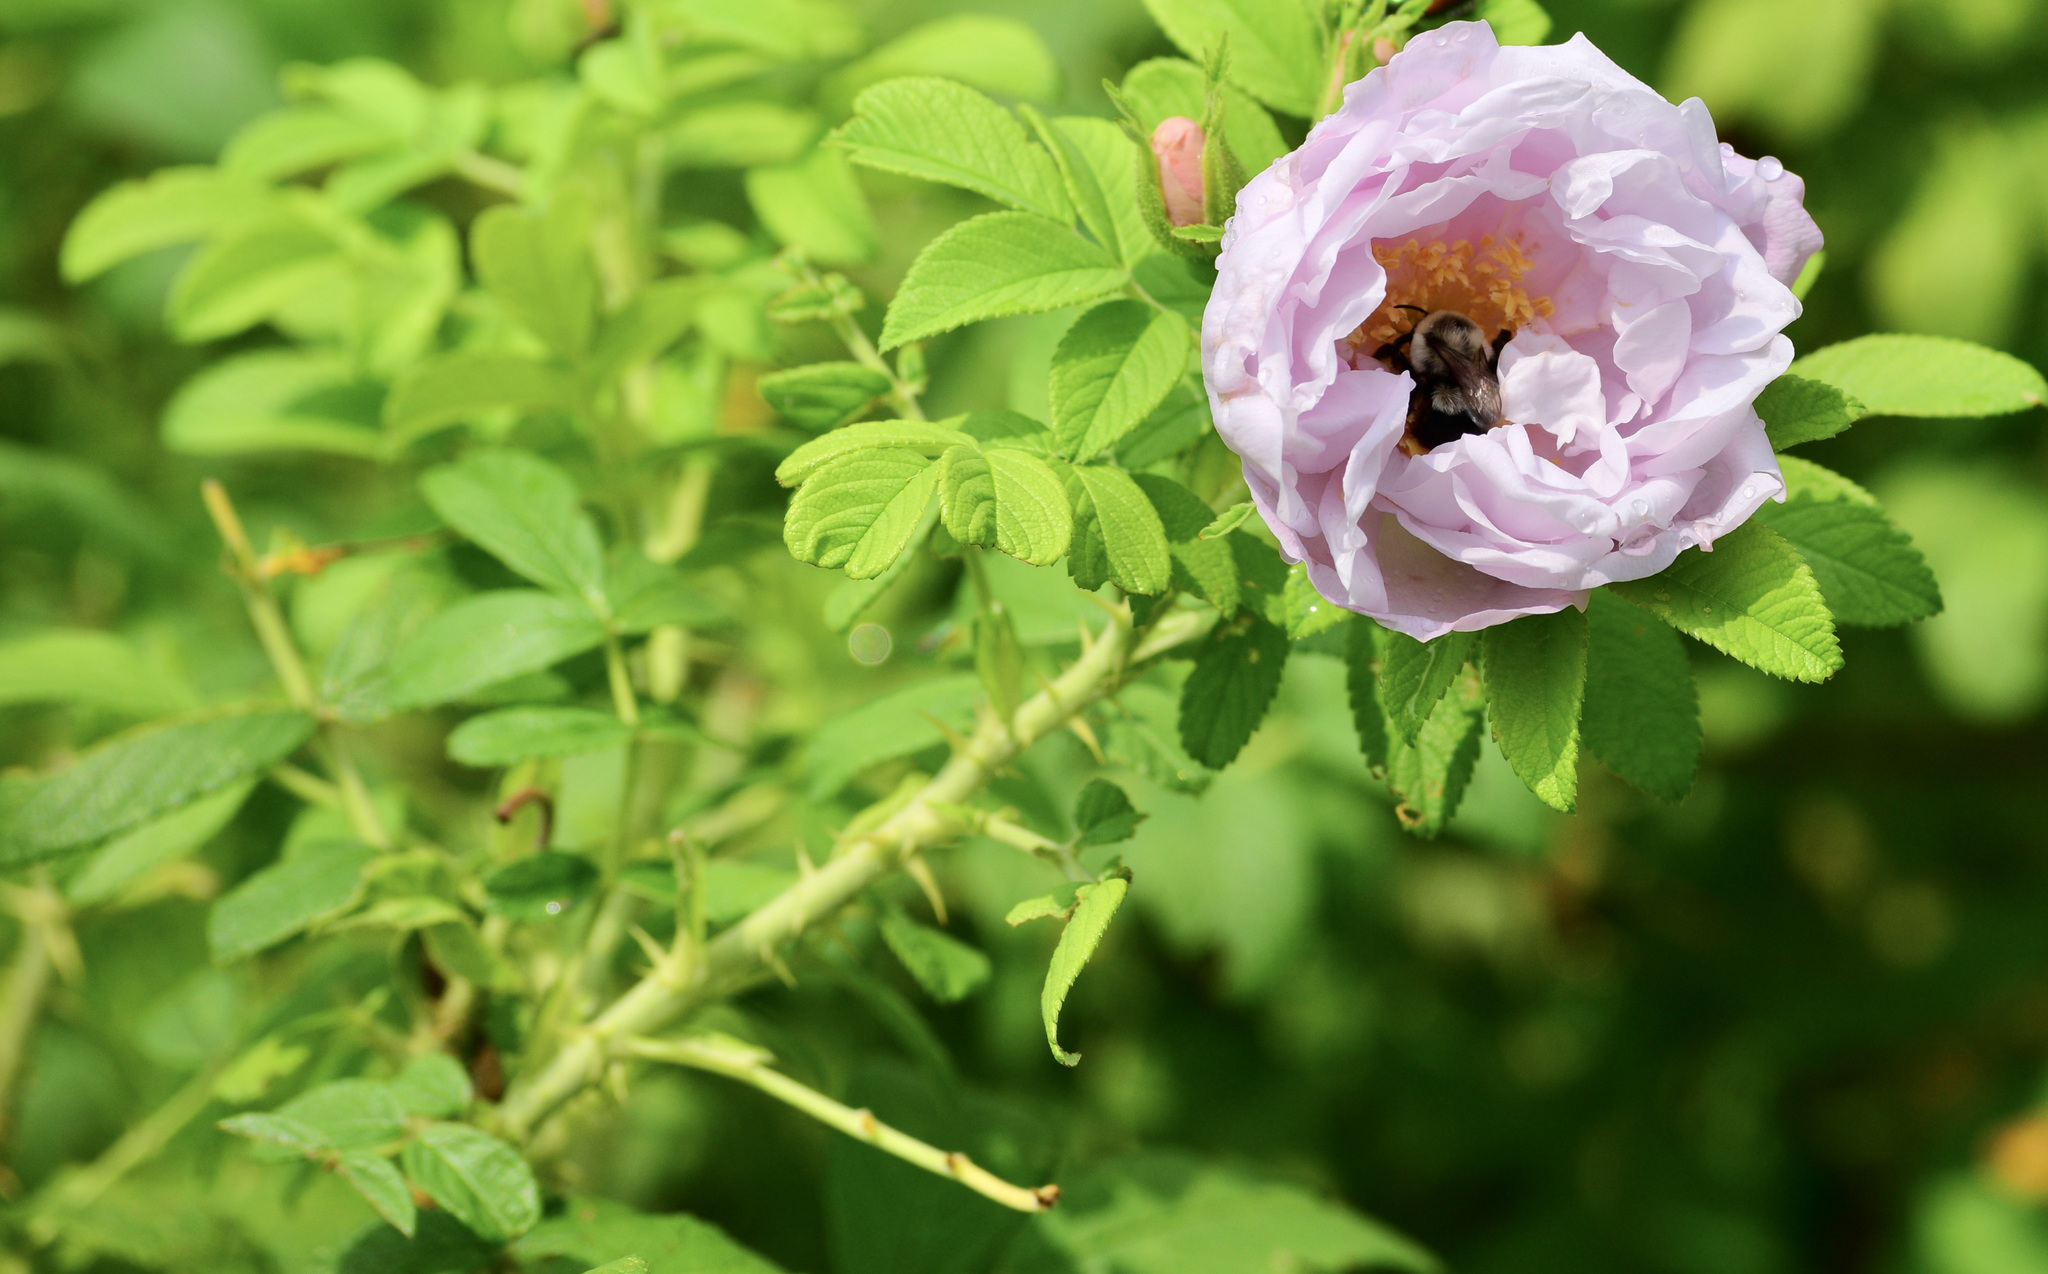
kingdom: Animalia
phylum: Arthropoda
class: Insecta
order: Hymenoptera
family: Apidae
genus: Bombus
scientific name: Bombus impatiens
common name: Common eastern bumble bee
